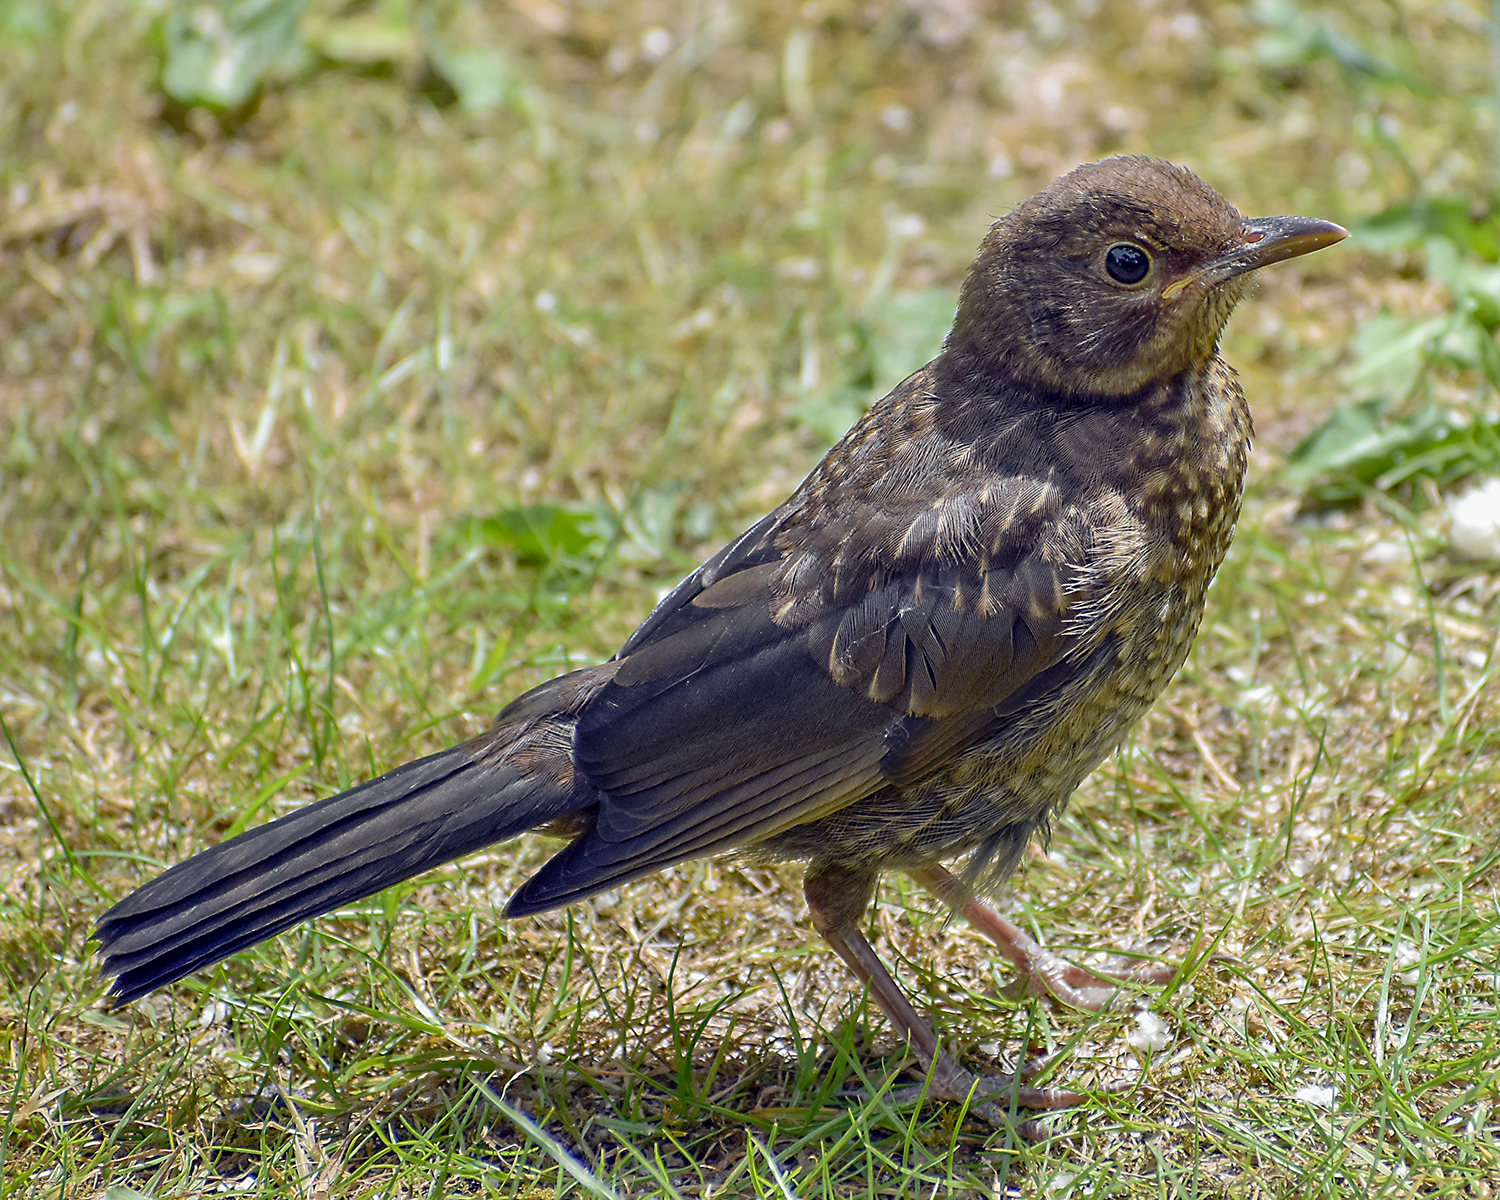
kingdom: Animalia
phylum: Chordata
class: Aves
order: Passeriformes
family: Turdidae
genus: Turdus
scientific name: Turdus merula
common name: Common blackbird
